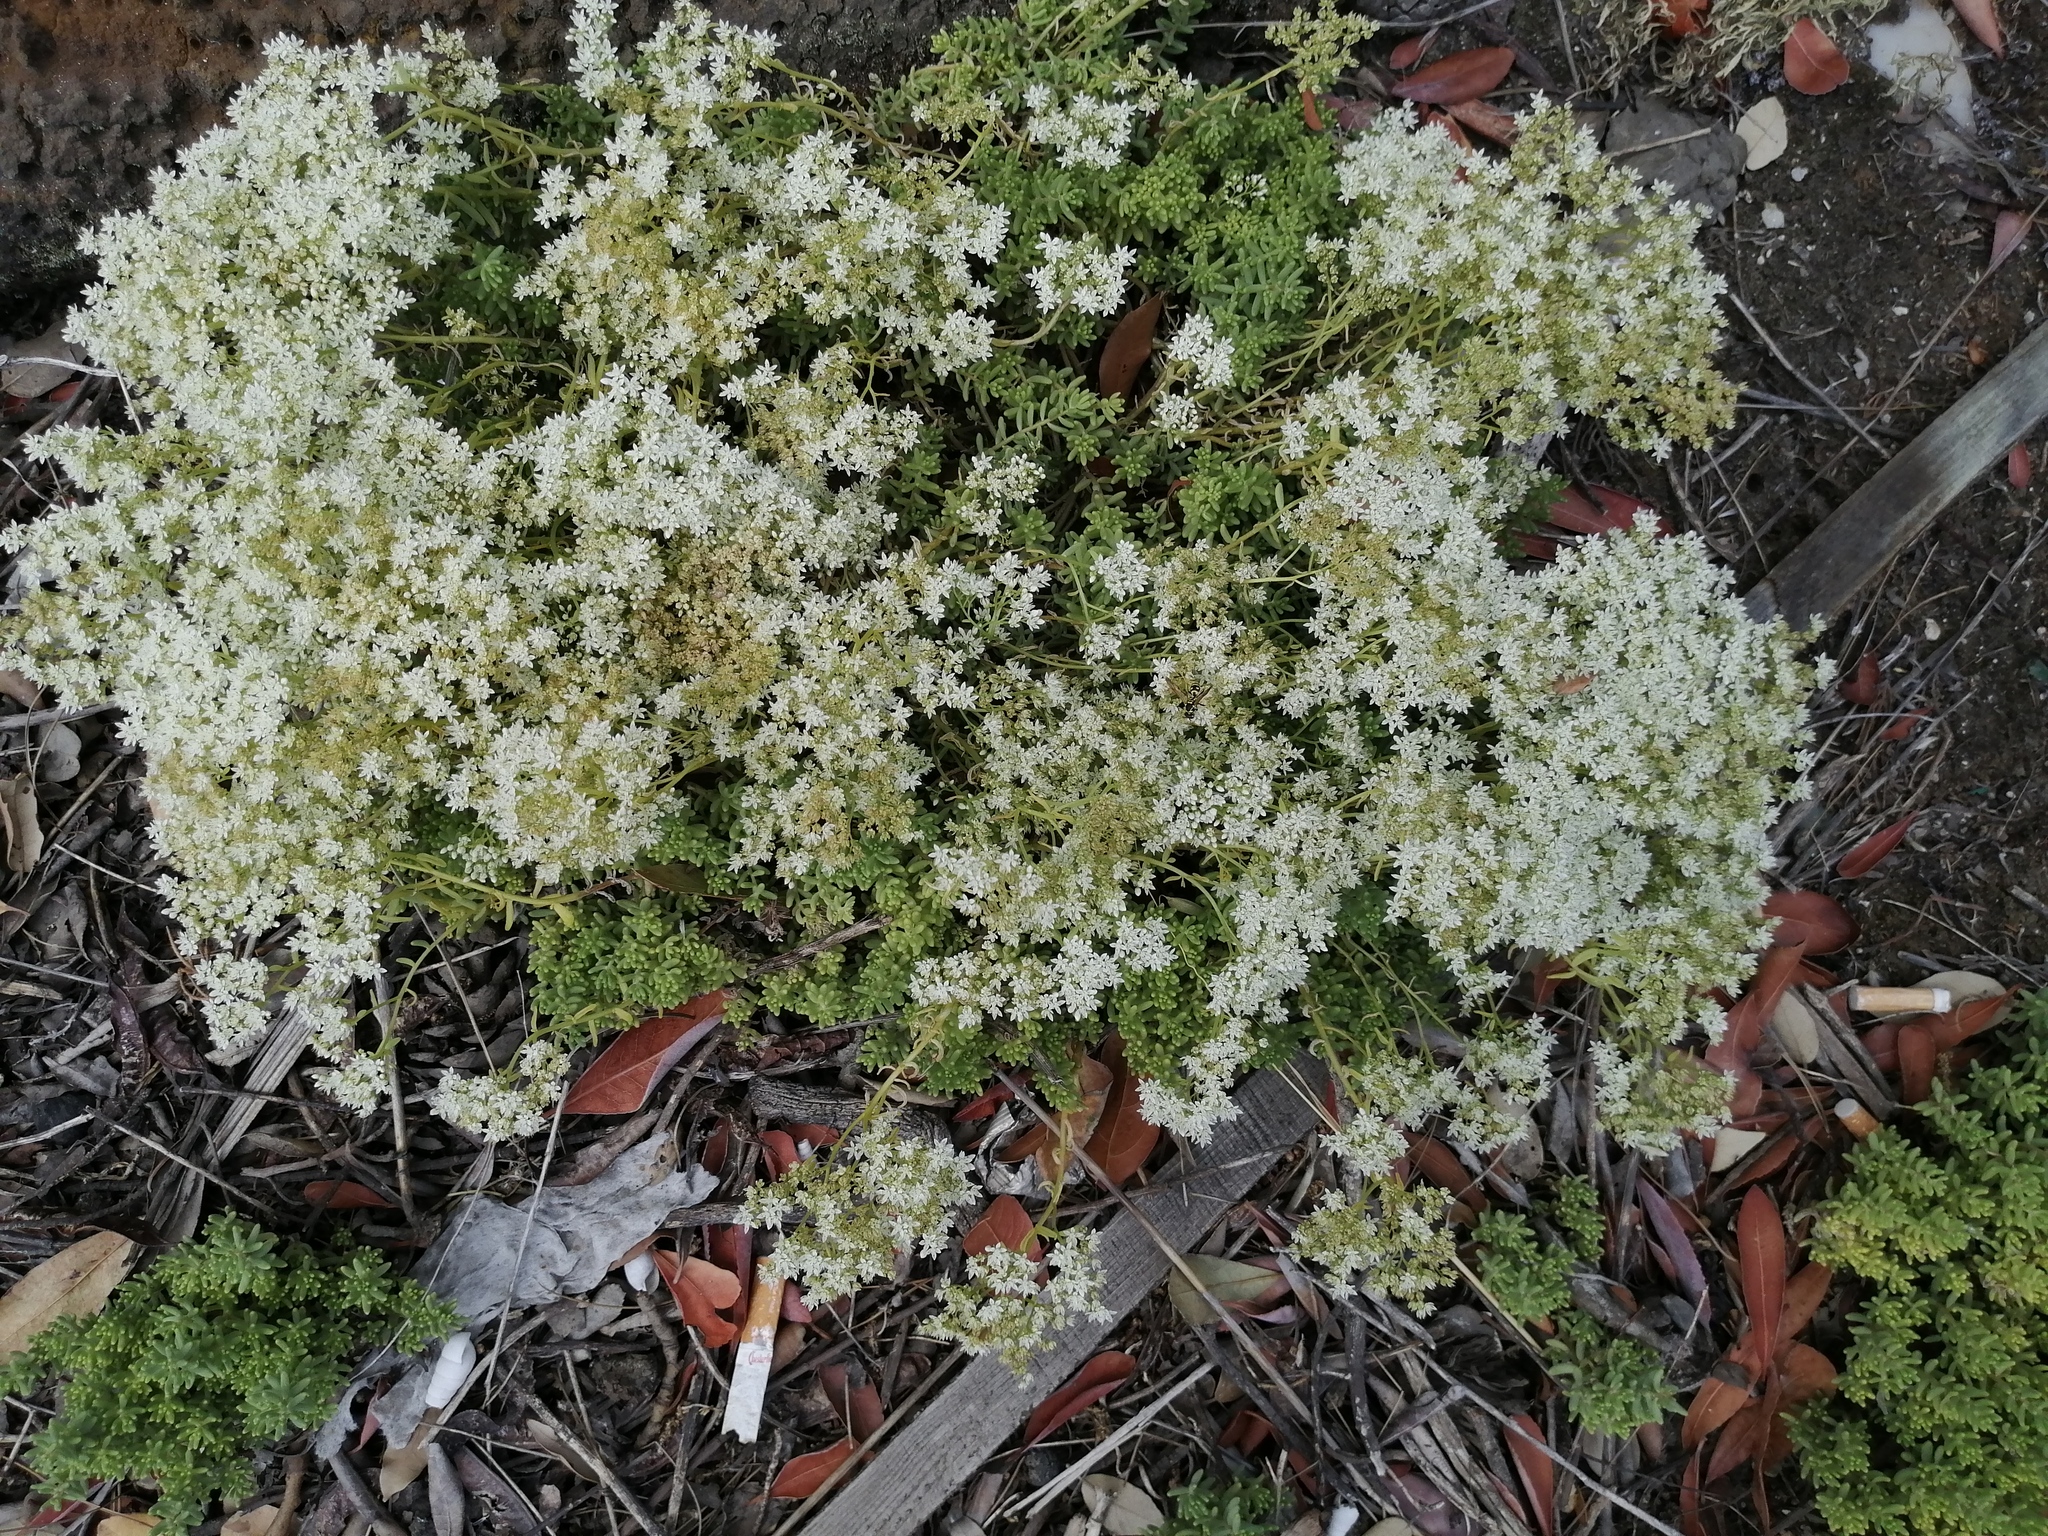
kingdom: Plantae
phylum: Tracheophyta
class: Magnoliopsida
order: Saxifragales
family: Crassulaceae
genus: Sedum
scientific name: Sedum album
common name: White stonecrop
